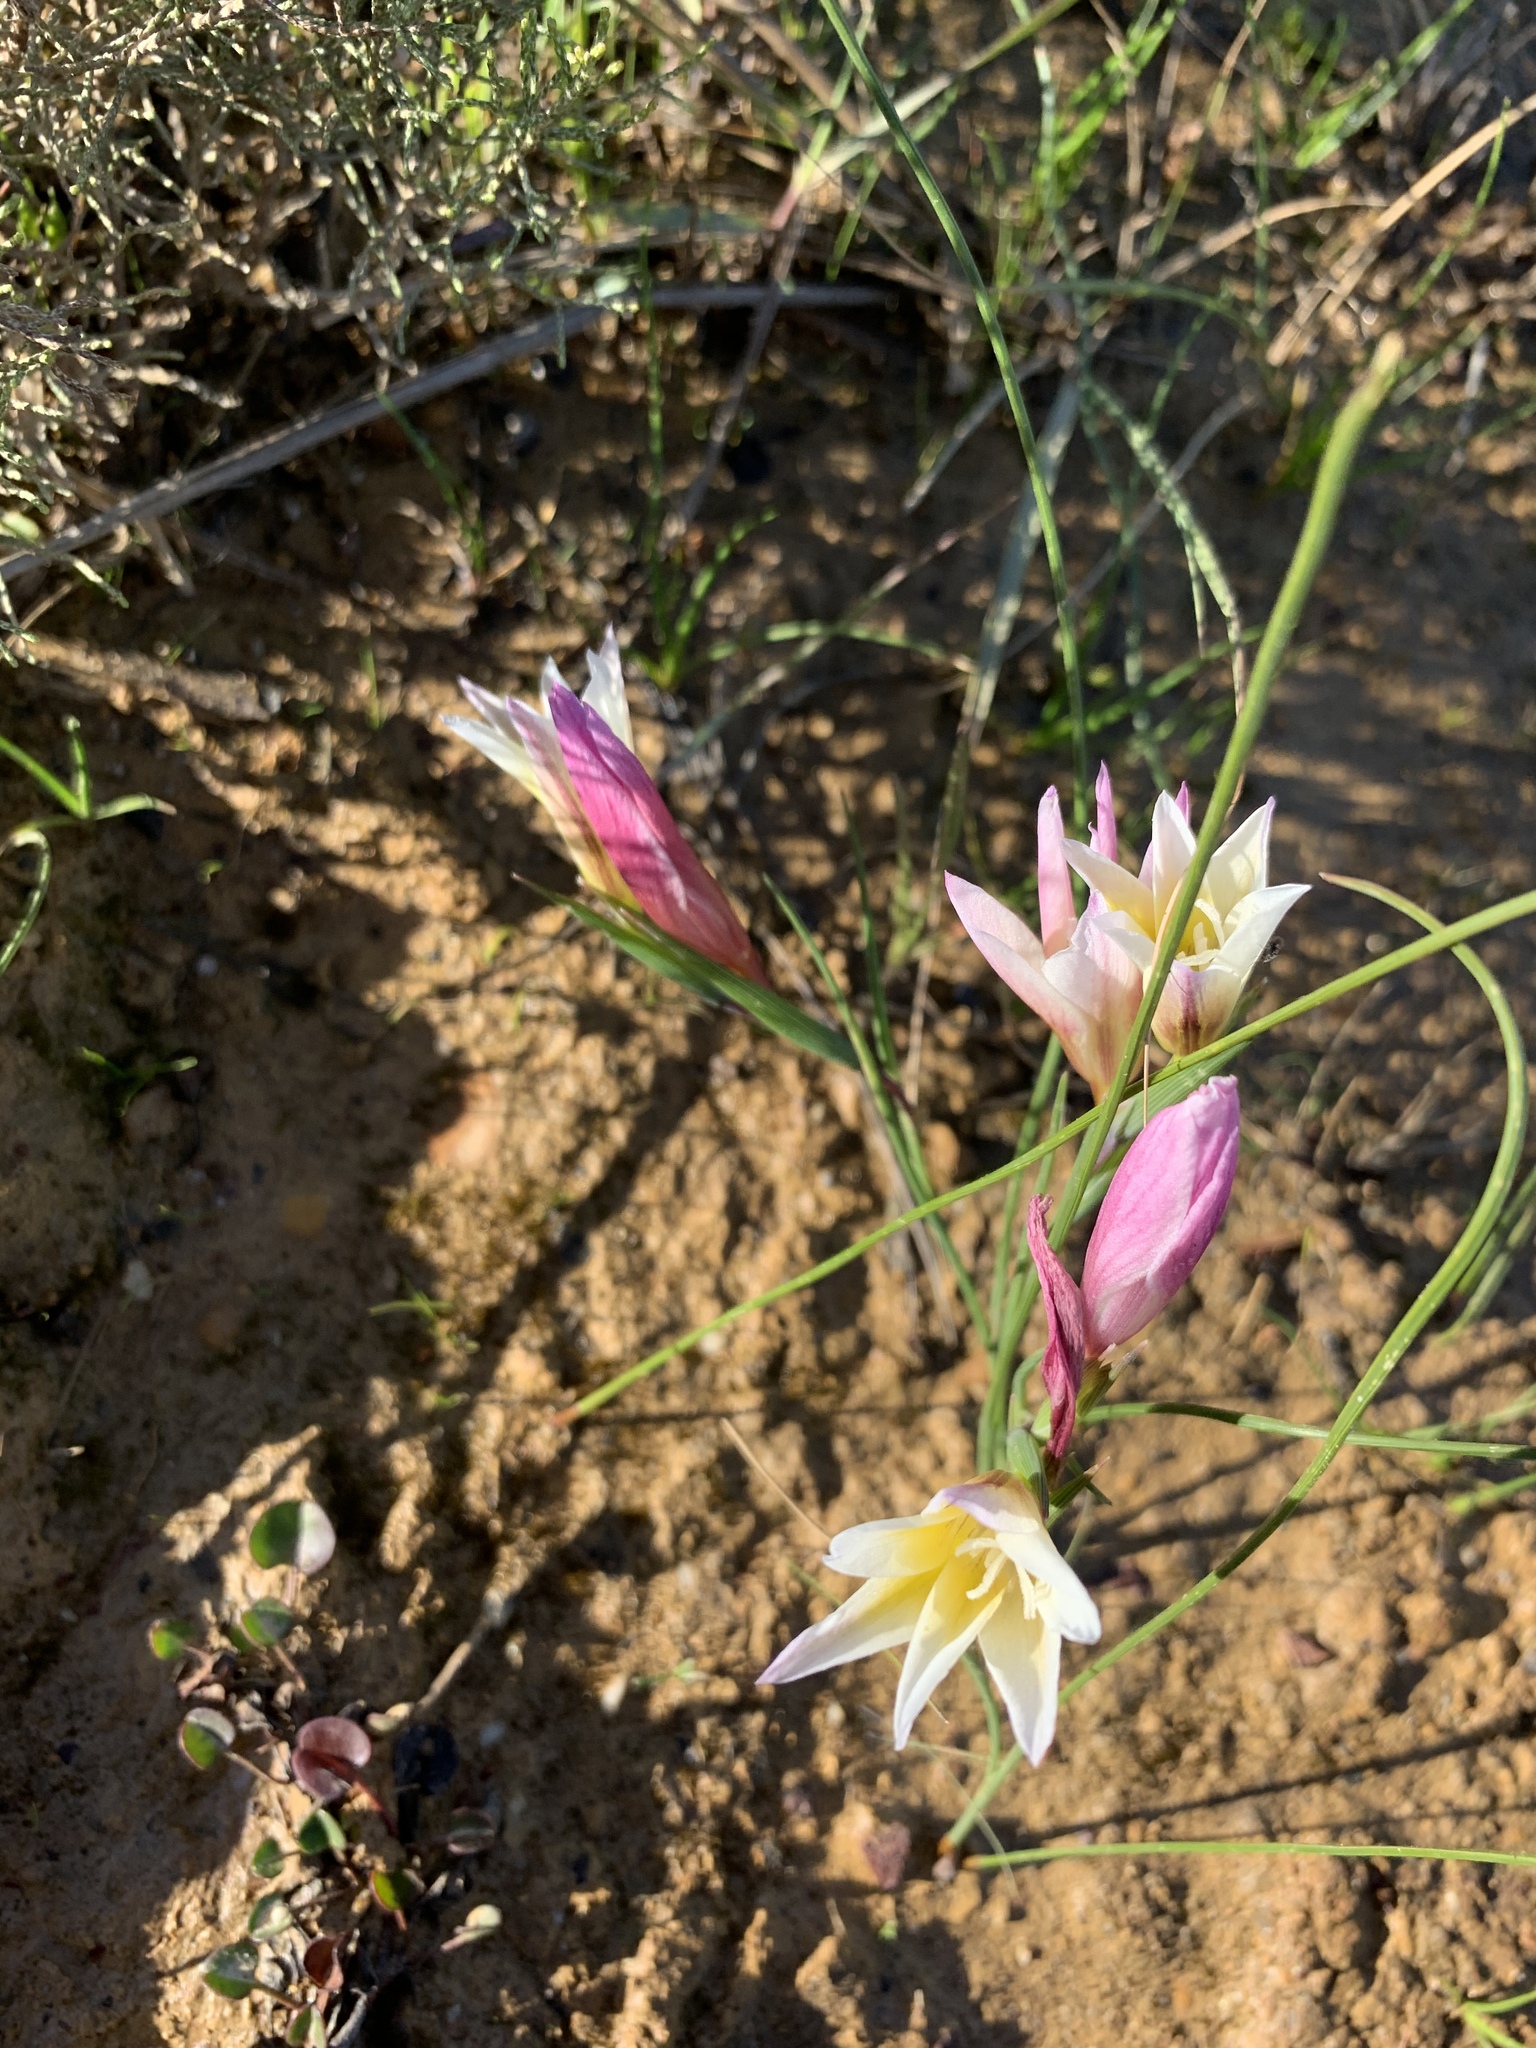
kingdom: Plantae
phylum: Tracheophyta
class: Liliopsida
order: Asparagales
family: Iridaceae
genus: Gladiolus
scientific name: Gladiolus trichonemifolius
